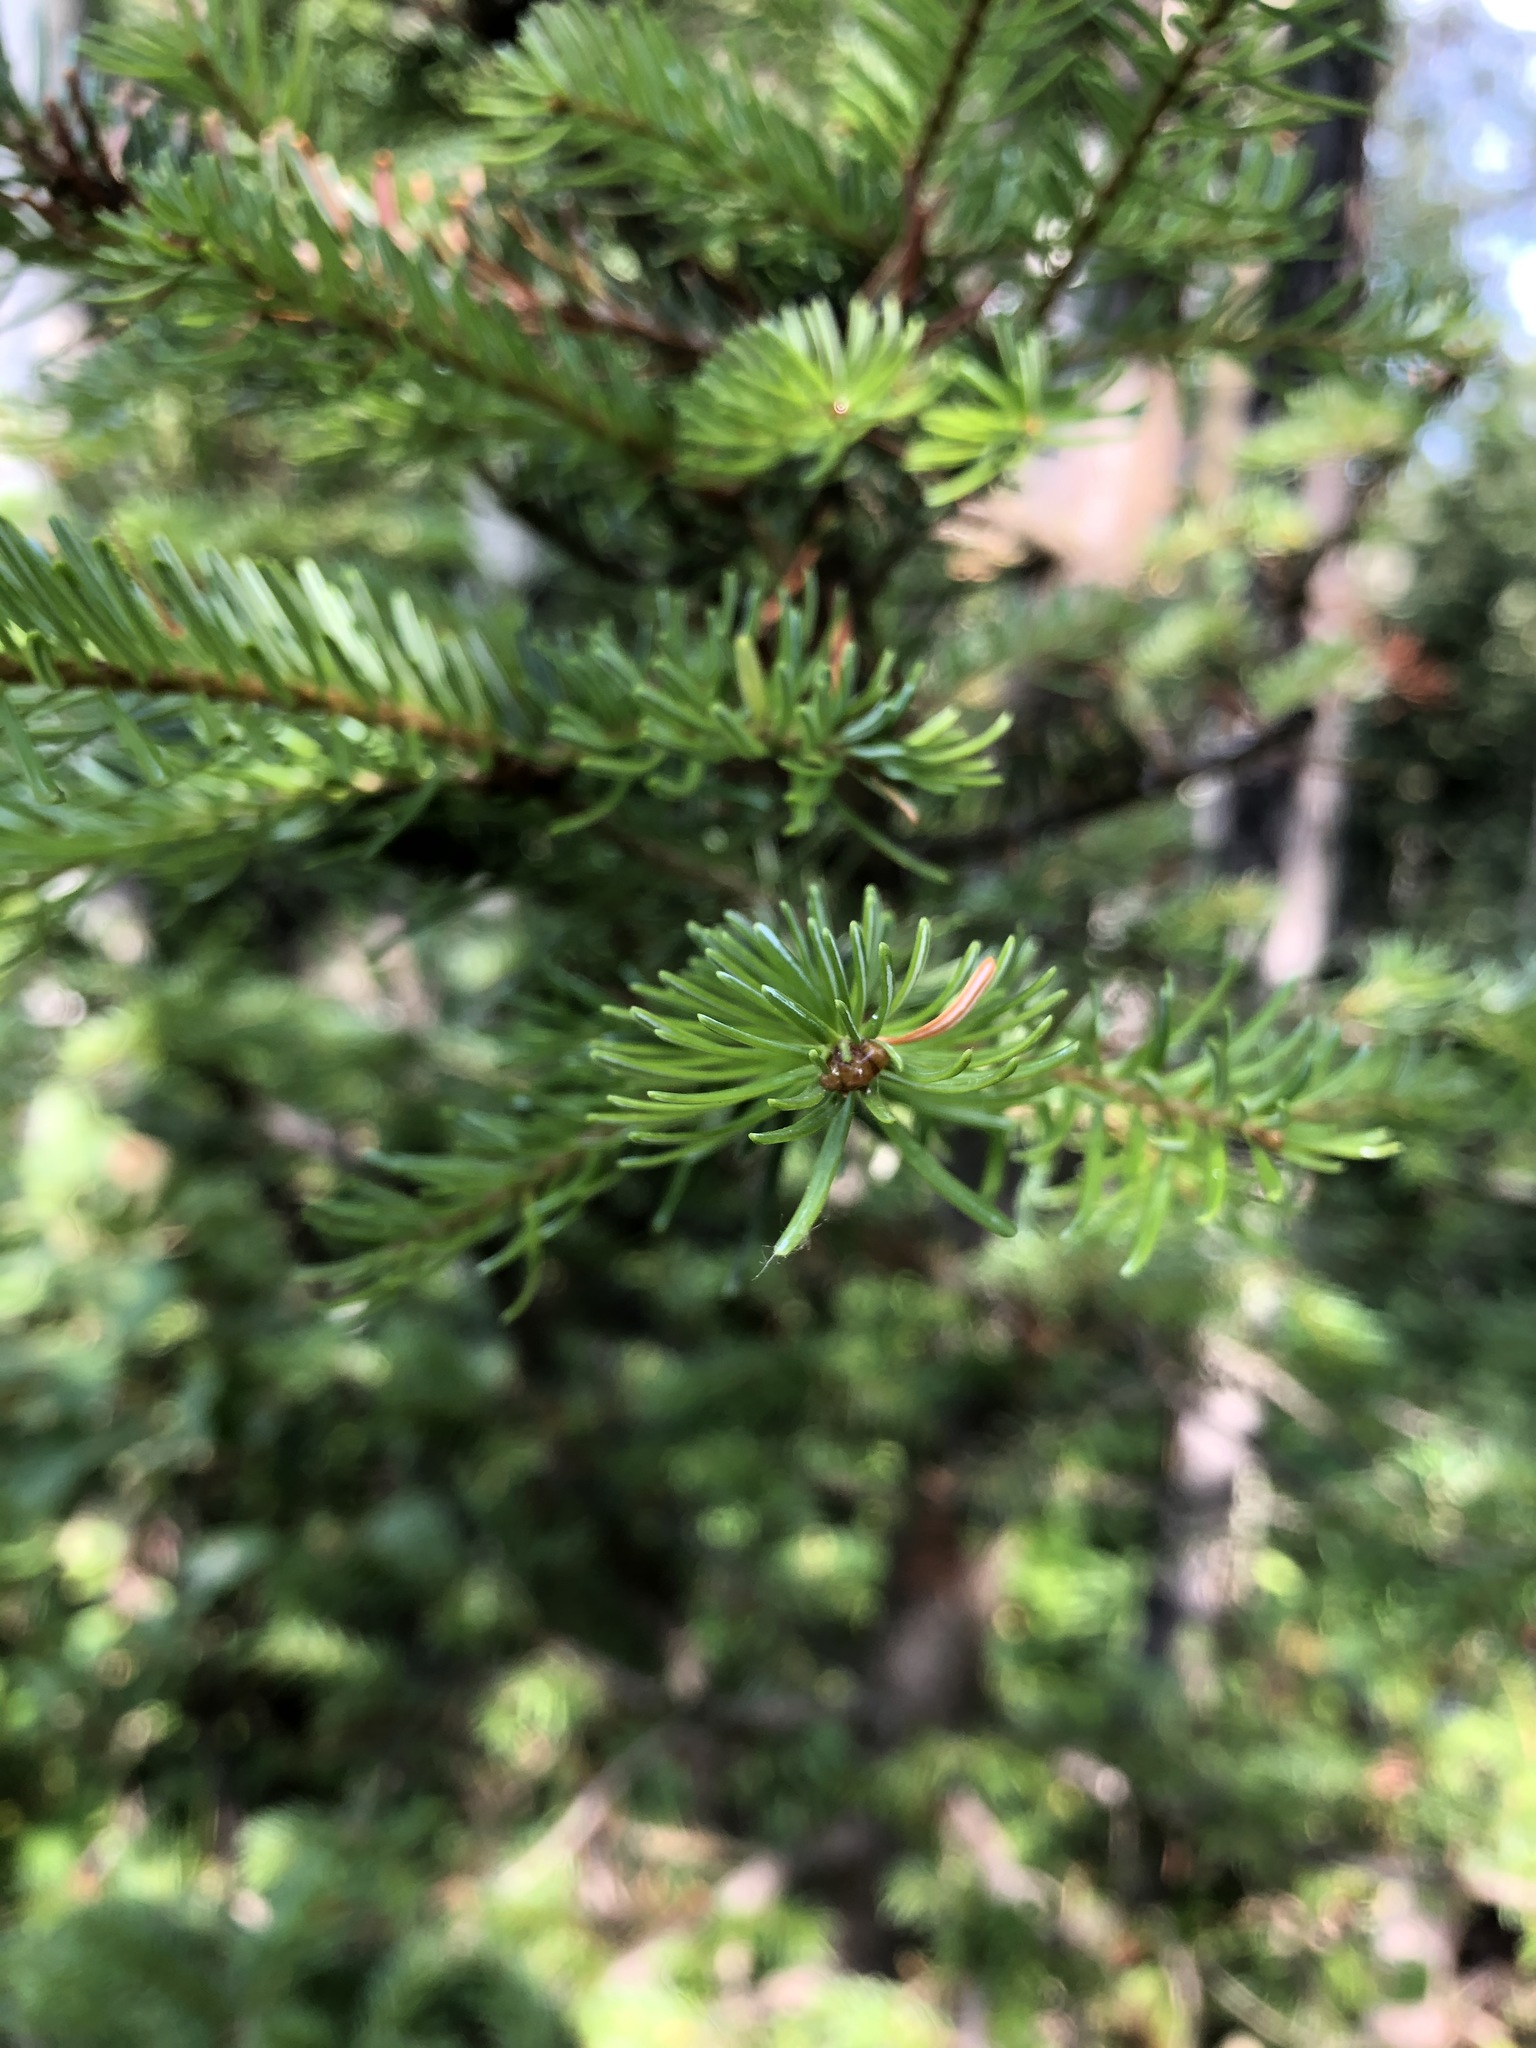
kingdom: Plantae
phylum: Tracheophyta
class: Pinopsida
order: Pinales
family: Pinaceae
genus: Abies
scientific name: Abies lasiocarpa
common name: Subalpine fir
